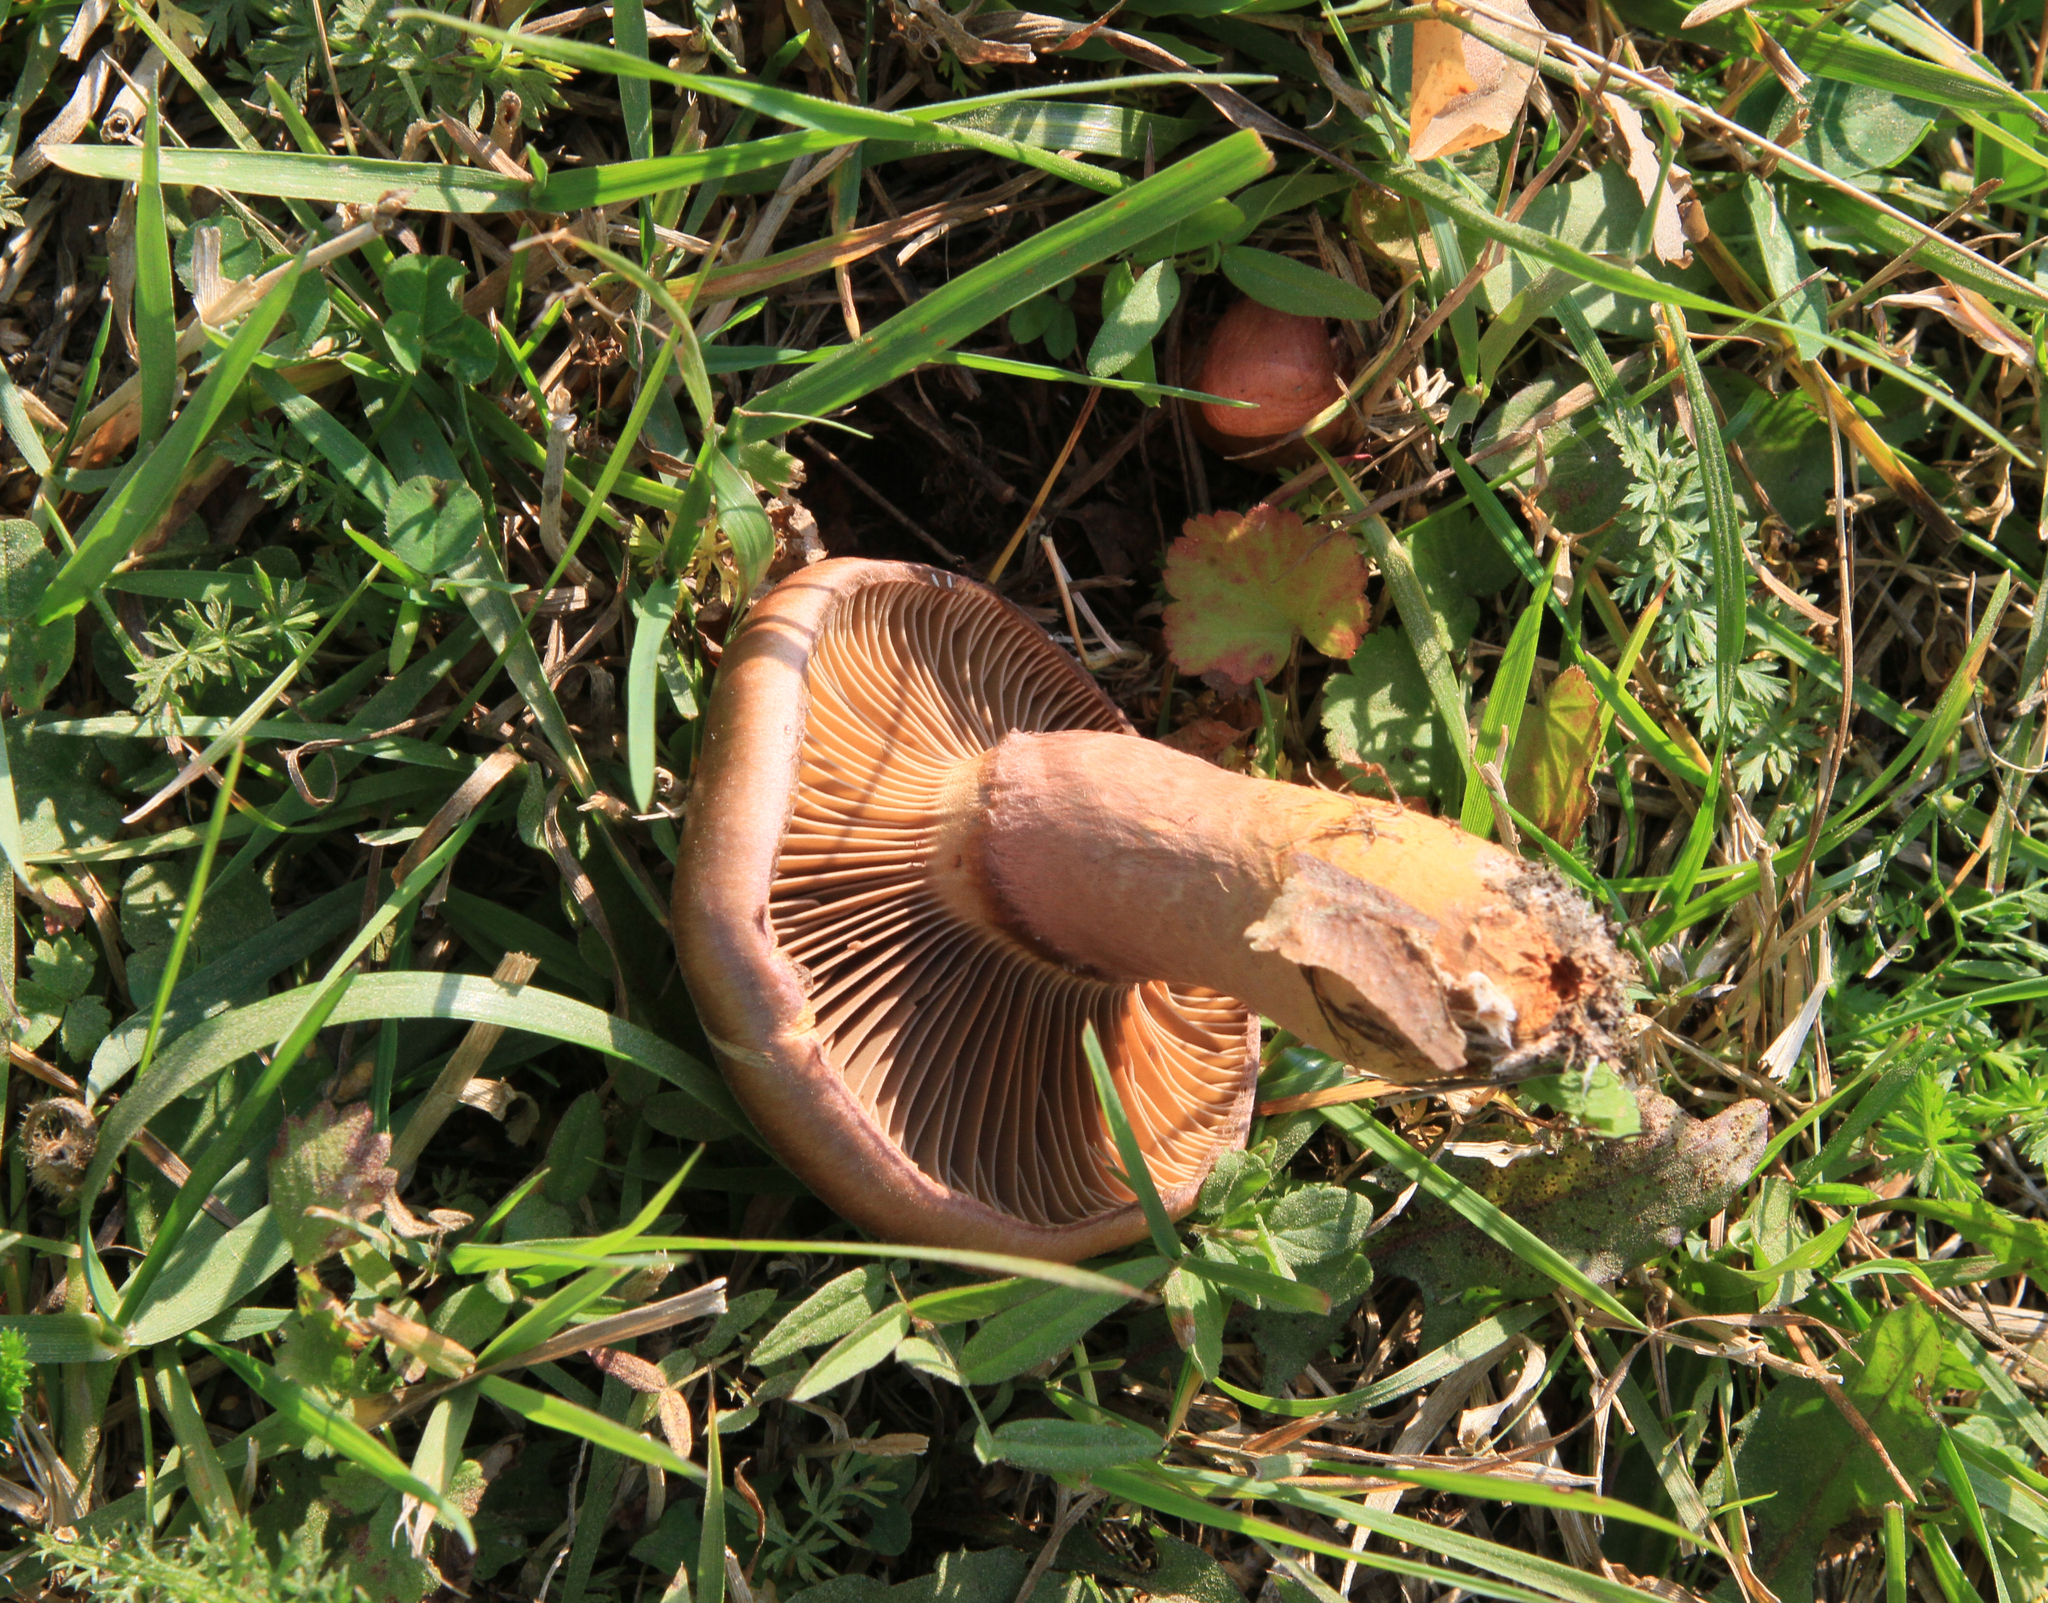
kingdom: Fungi
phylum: Basidiomycota
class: Agaricomycetes
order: Boletales
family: Gomphidiaceae
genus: Chroogomphus
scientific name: Chroogomphus rutilus
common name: Copper spike
